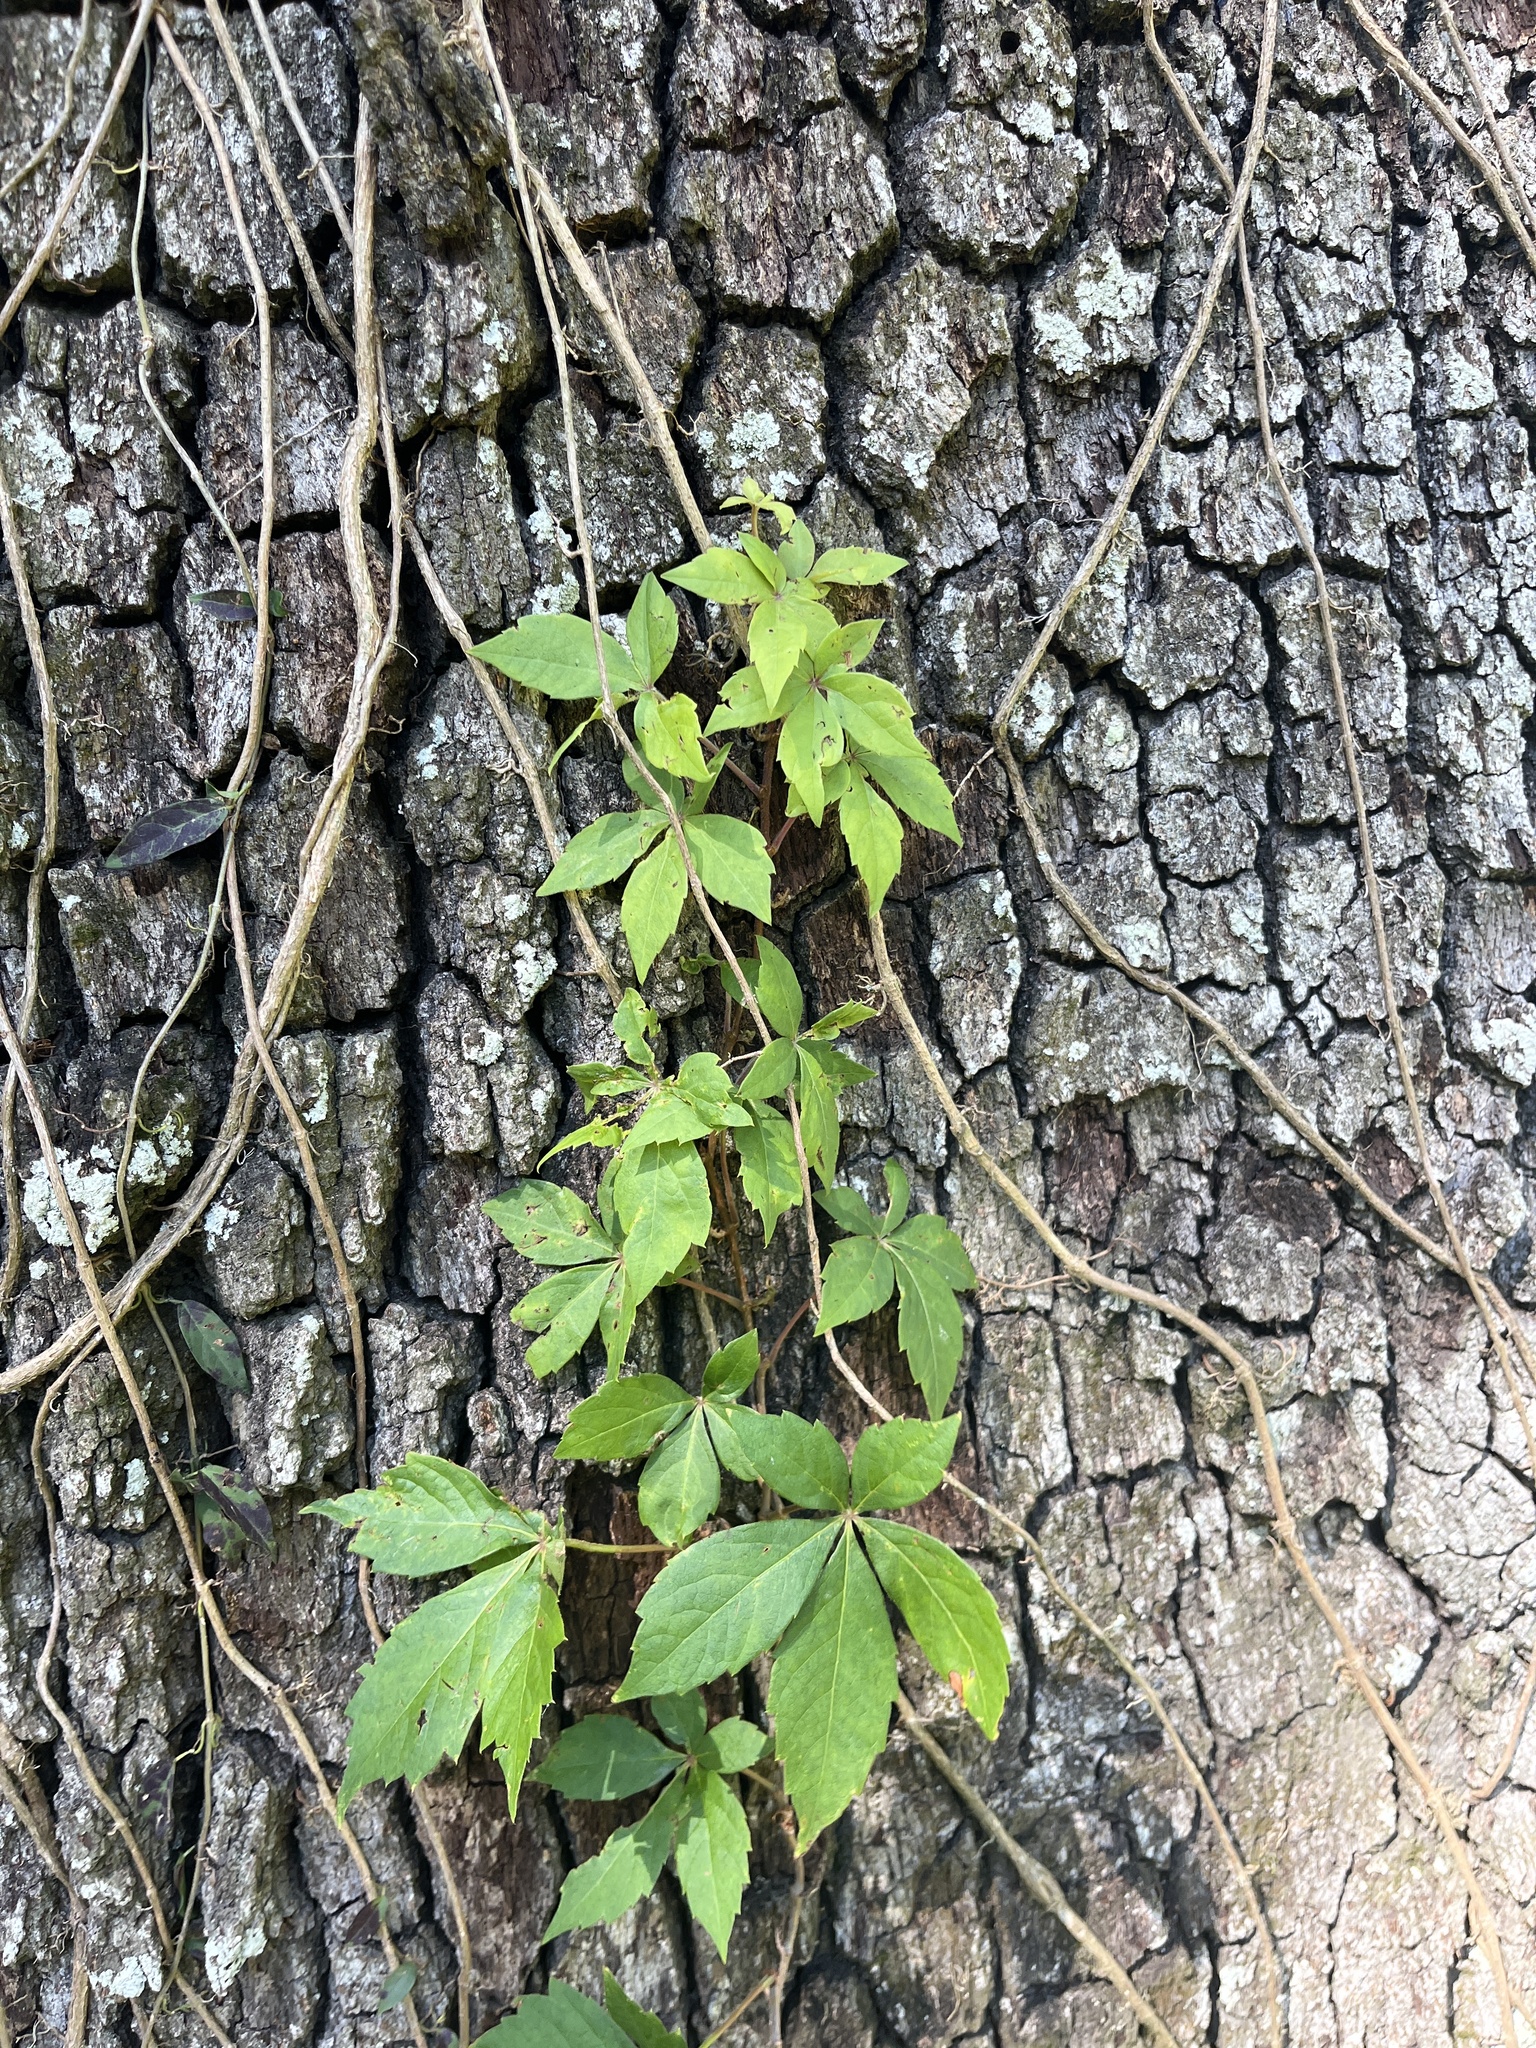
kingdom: Plantae
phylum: Tracheophyta
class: Magnoliopsida
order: Vitales
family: Vitaceae
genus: Parthenocissus
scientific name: Parthenocissus quinquefolia
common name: Virginia-creeper
